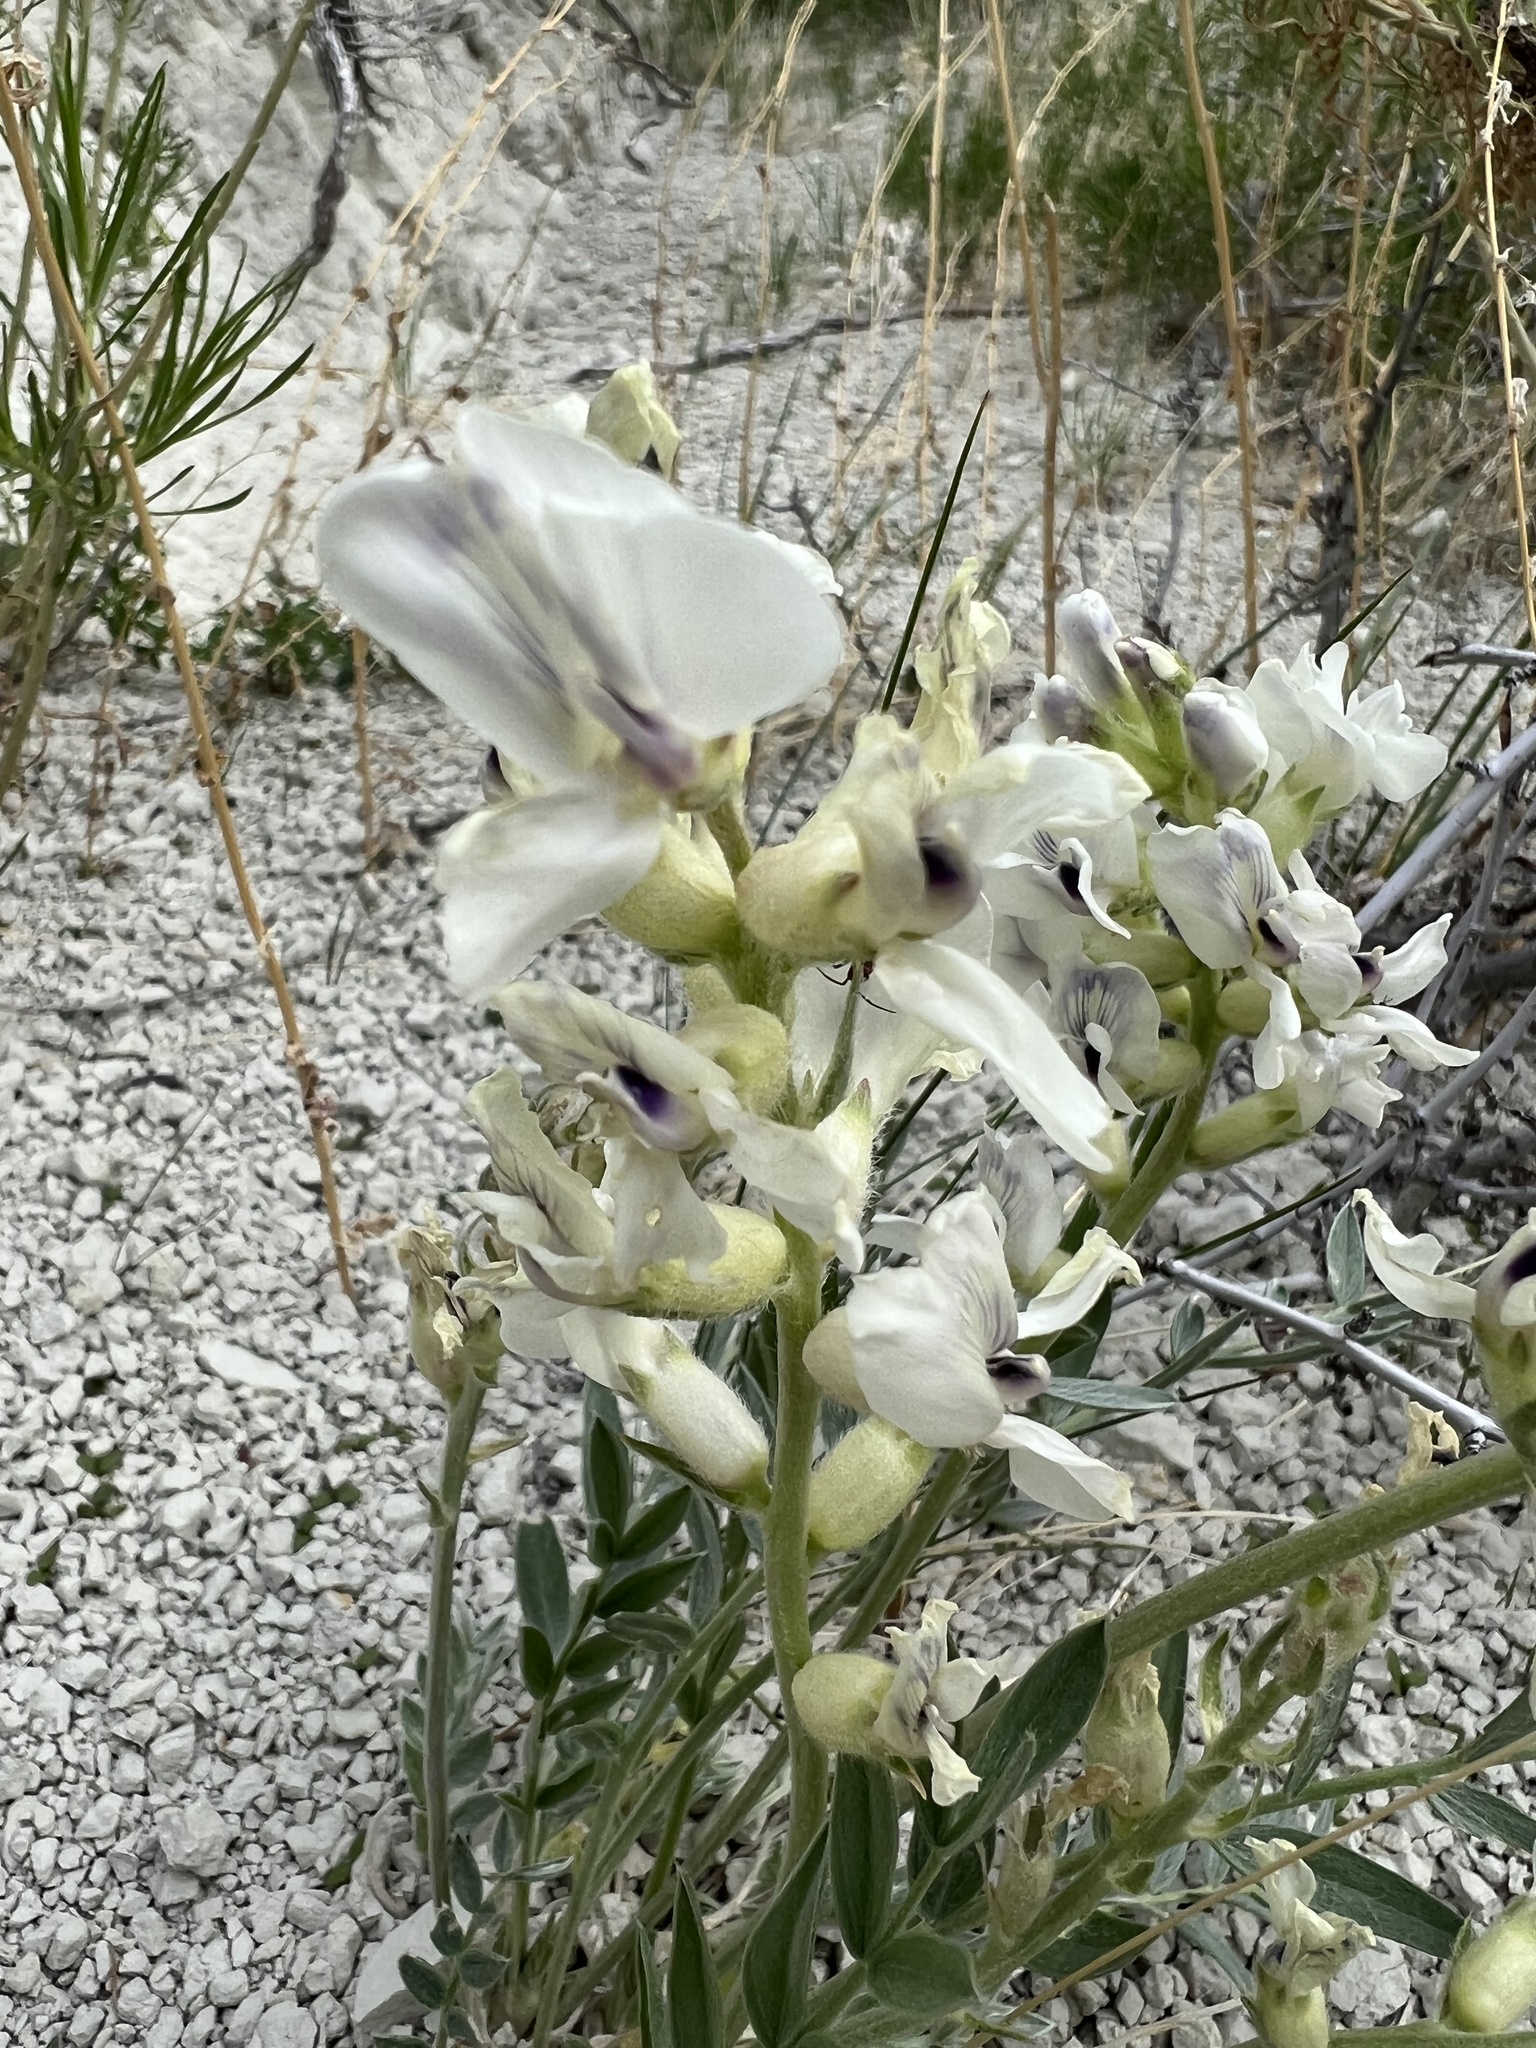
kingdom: Plantae
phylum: Tracheophyta
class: Magnoliopsida
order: Fabales
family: Fabaceae
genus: Oxytropis
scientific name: Oxytropis sericea
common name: Silky locoweed
